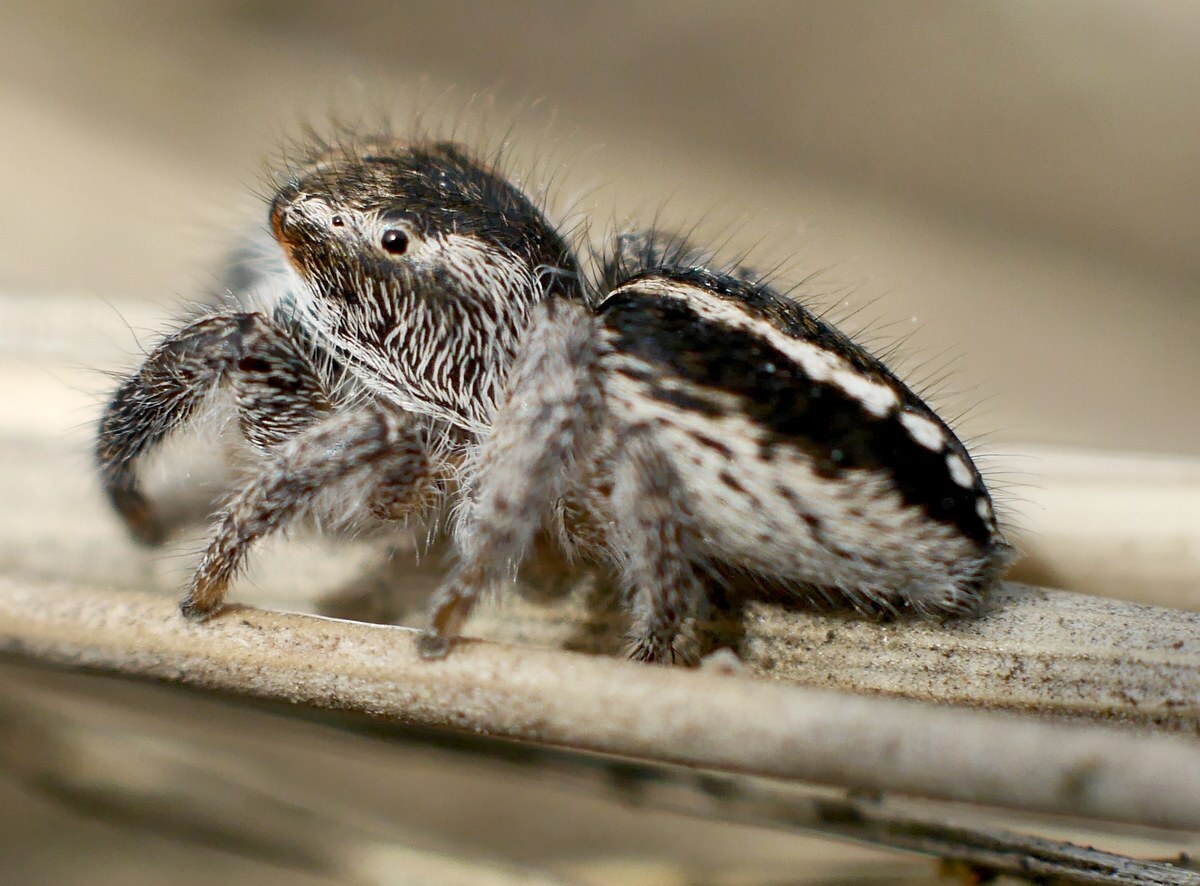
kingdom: Animalia
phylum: Arthropoda
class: Arachnida
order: Araneae
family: Salticidae
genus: Pellenes
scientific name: Pellenes seriatus
